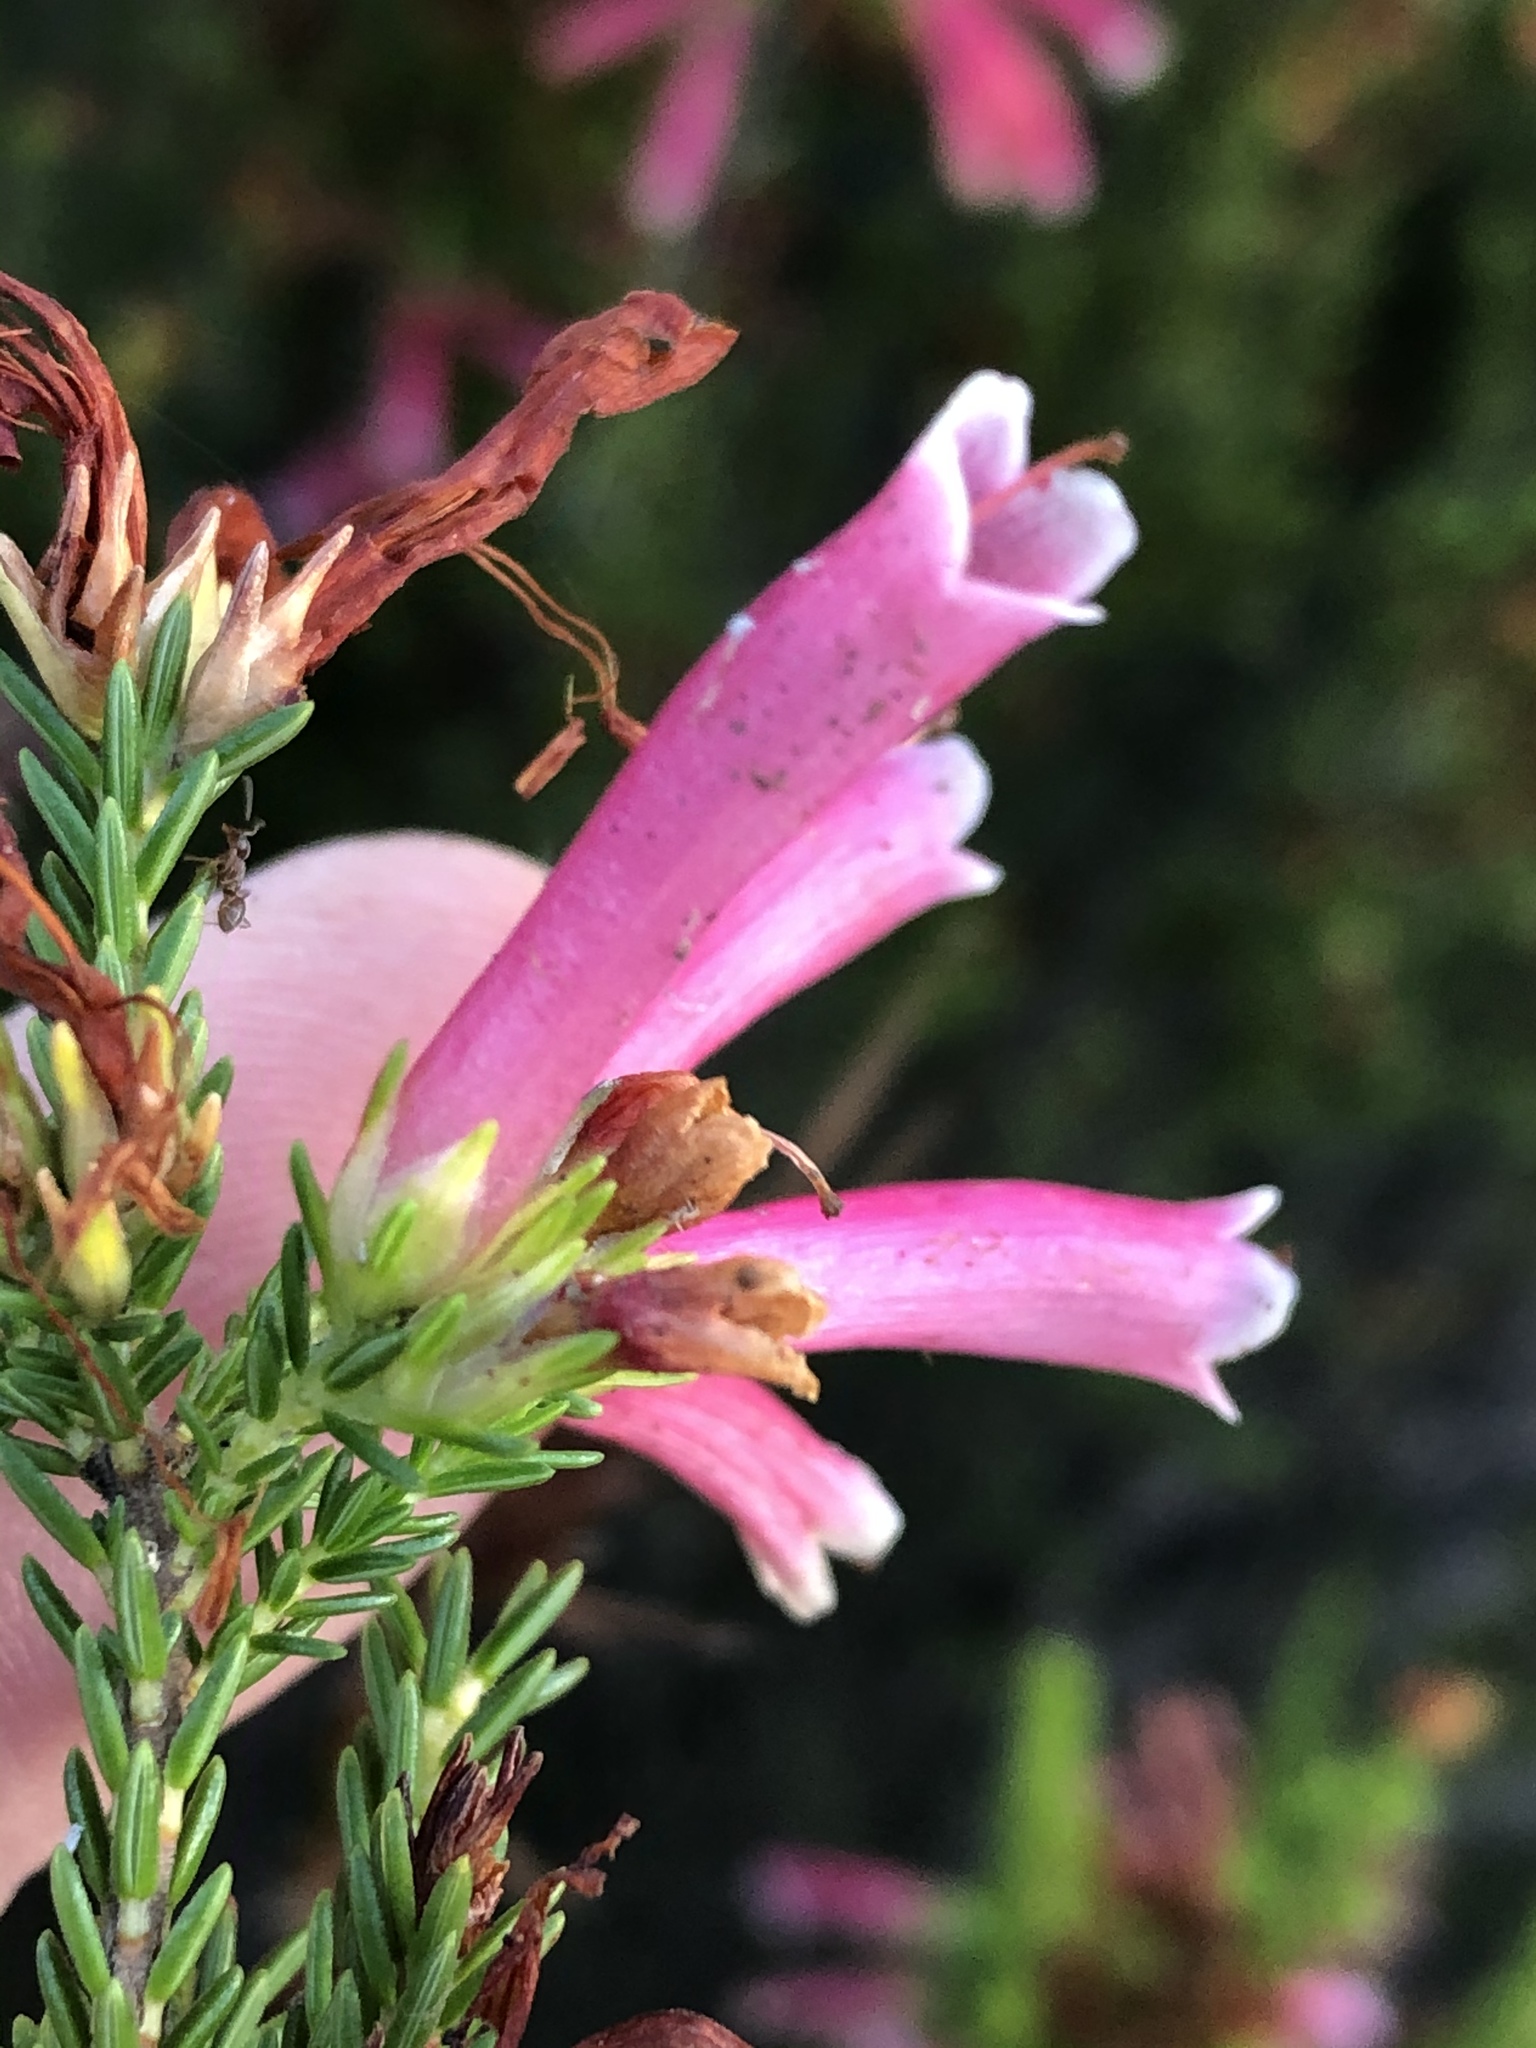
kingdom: Plantae
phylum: Tracheophyta
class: Magnoliopsida
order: Ericales
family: Ericaceae
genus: Erica
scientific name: Erica discolor
